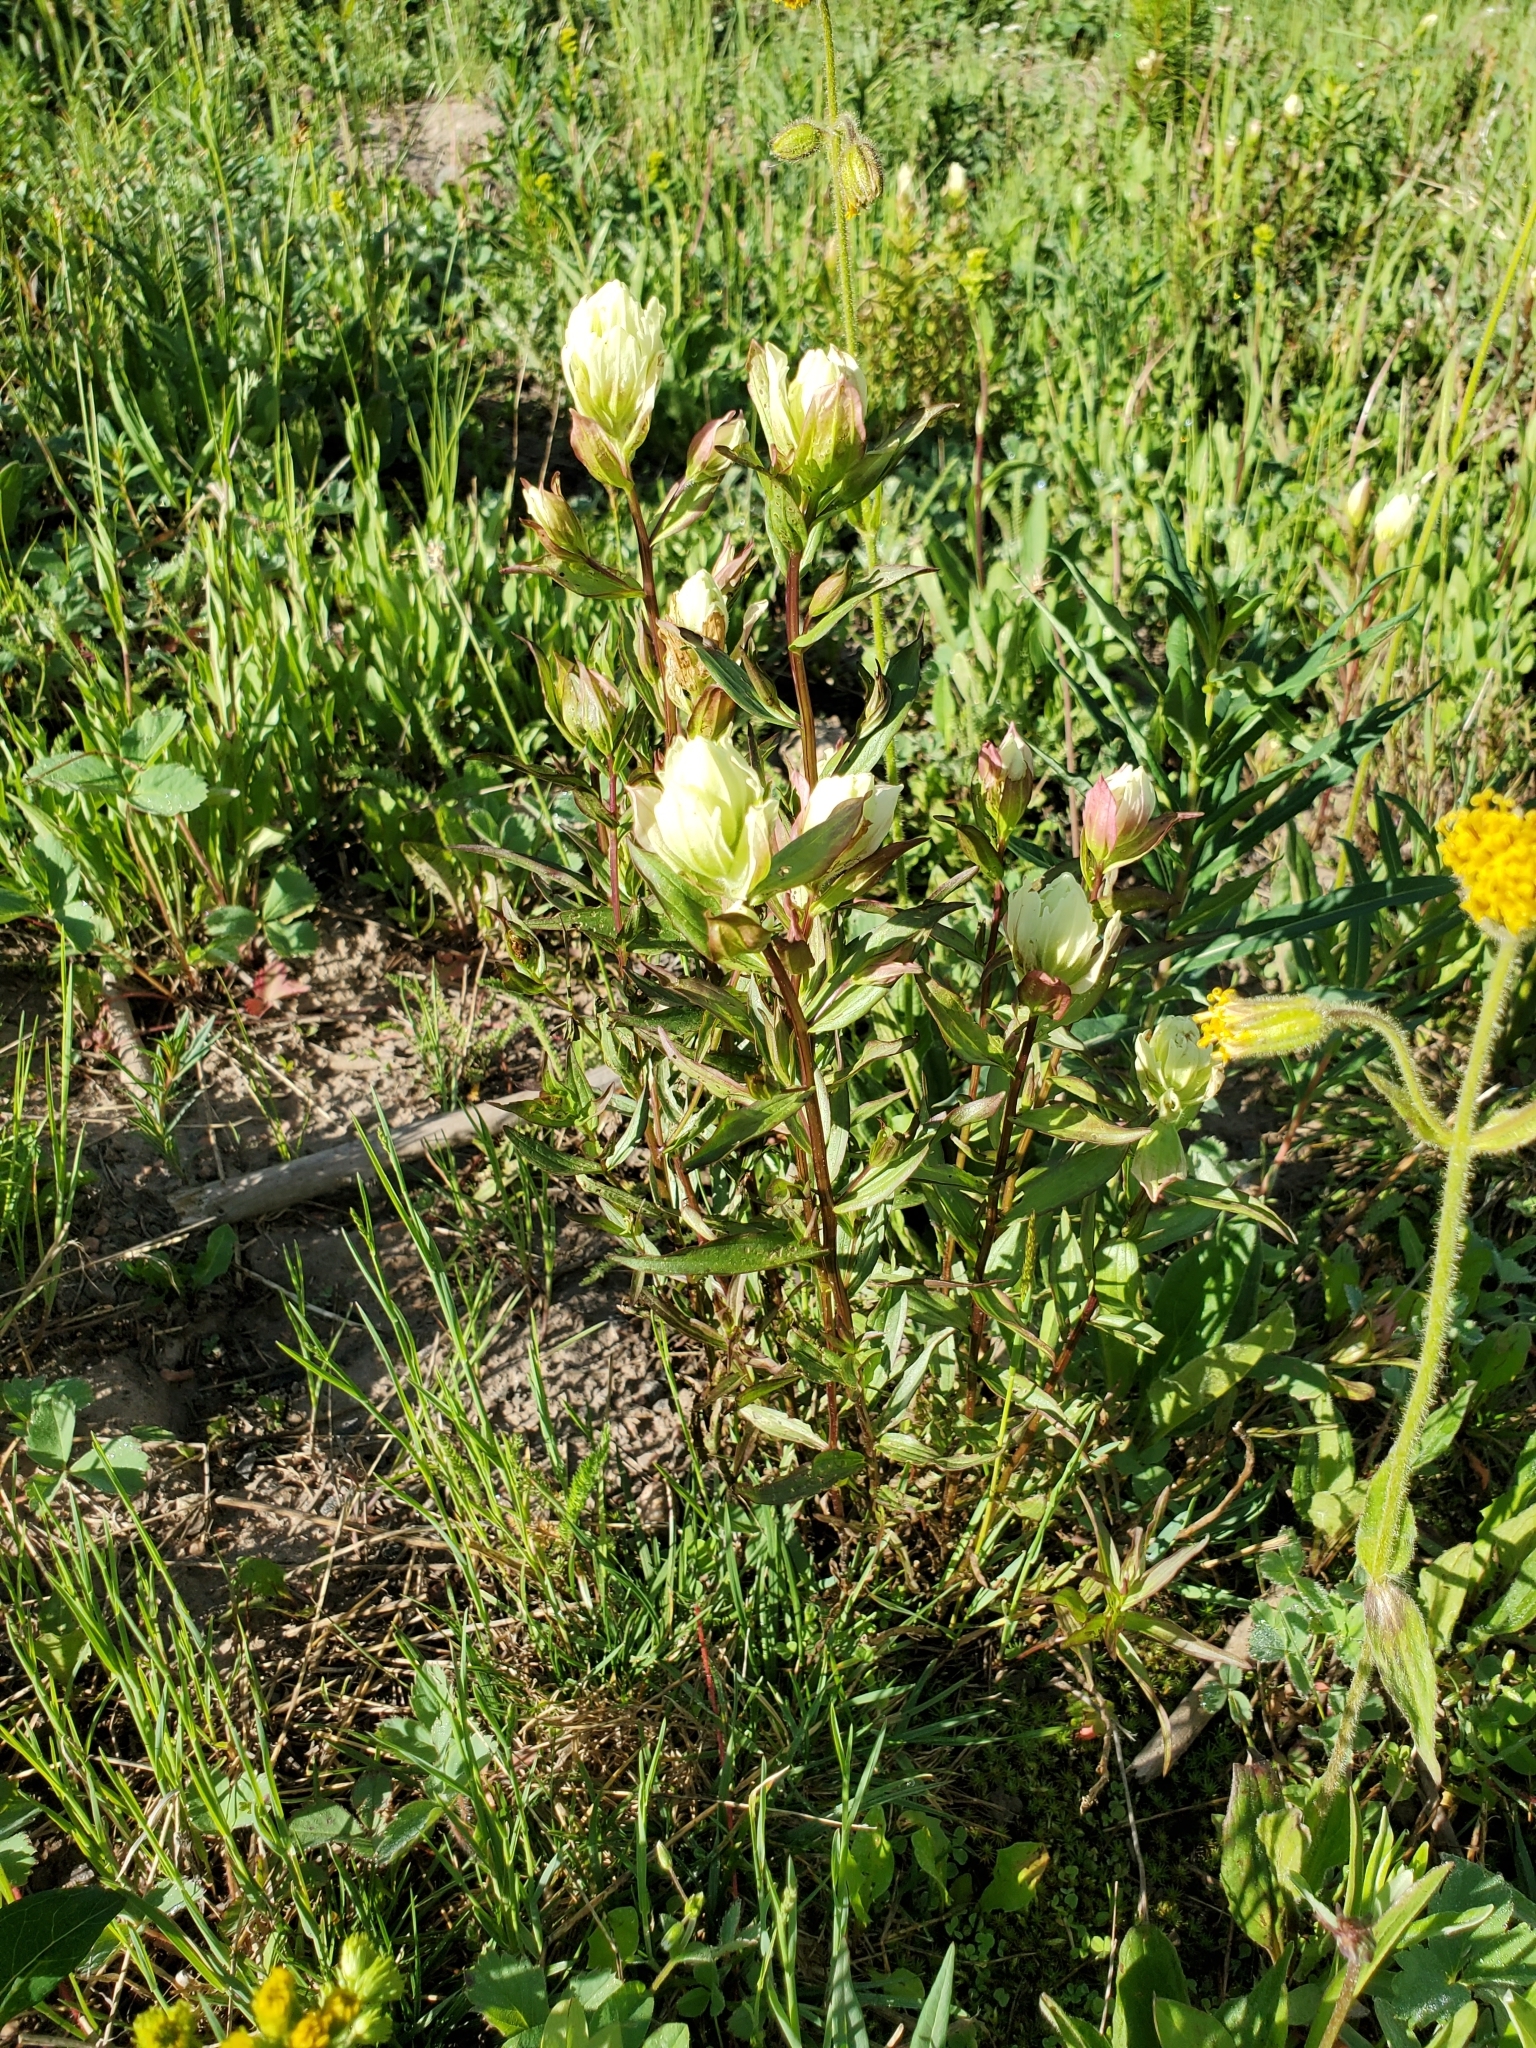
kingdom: Plantae
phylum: Tracheophyta
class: Magnoliopsida
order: Lamiales
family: Orobanchaceae
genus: Castilleja
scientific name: Castilleja septentrionalis
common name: Northeastern paintbrush
